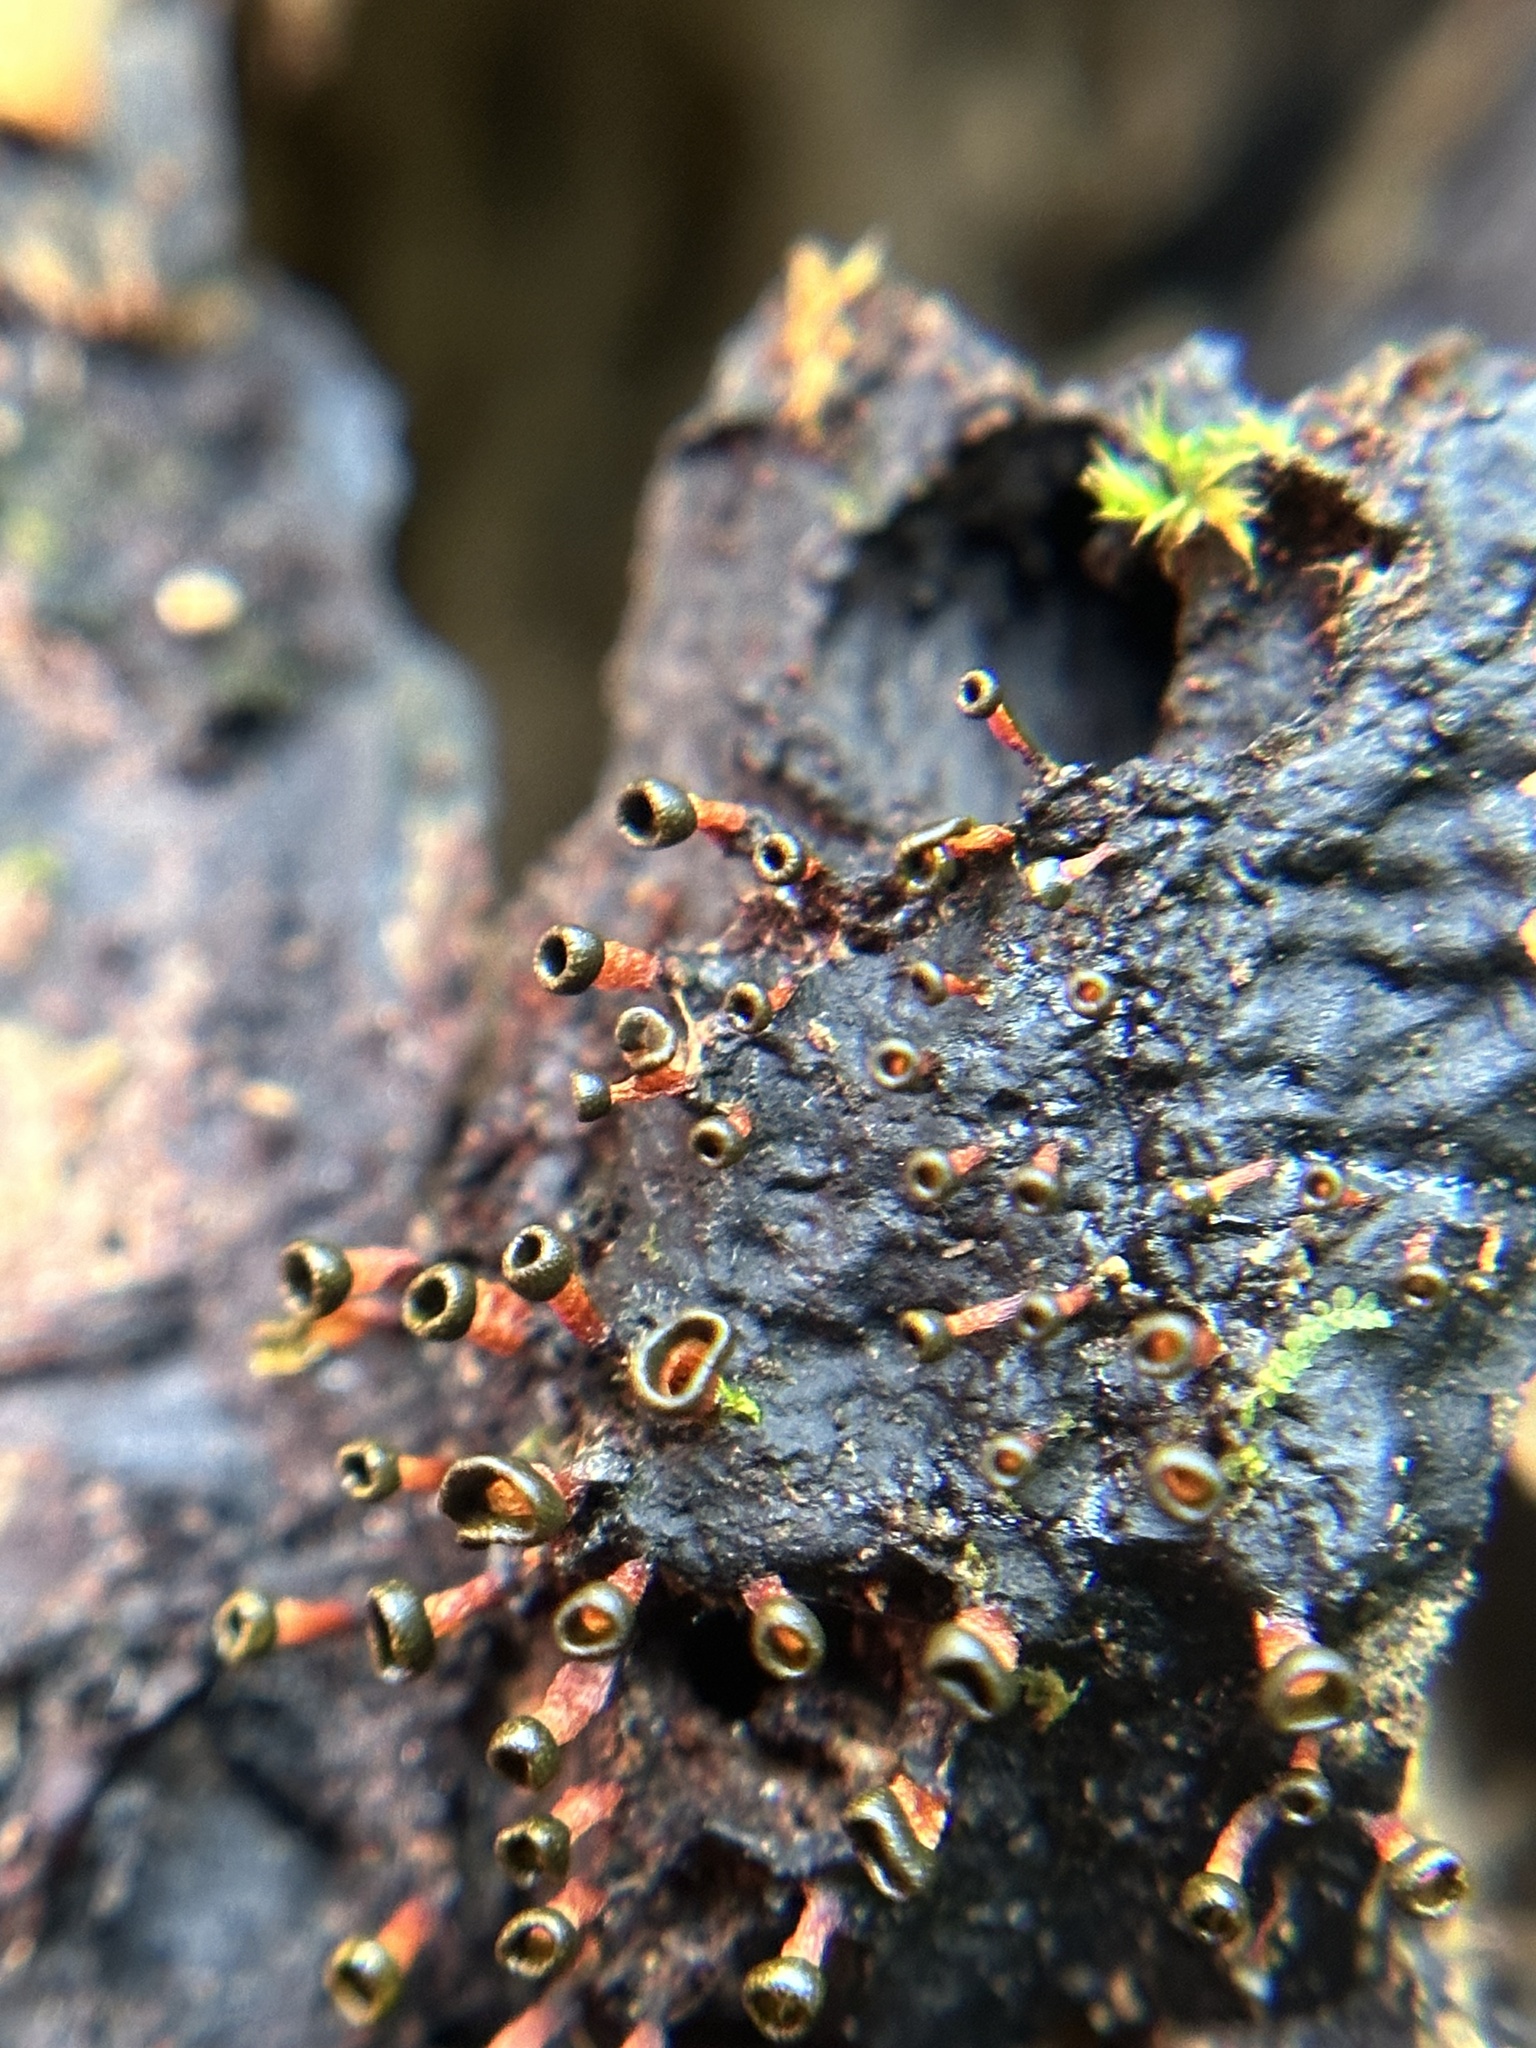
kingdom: Protozoa
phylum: Mycetozoa
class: Myxomycetes
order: Physarales
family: Physaraceae
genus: Physarella
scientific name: Physarella oblonga
